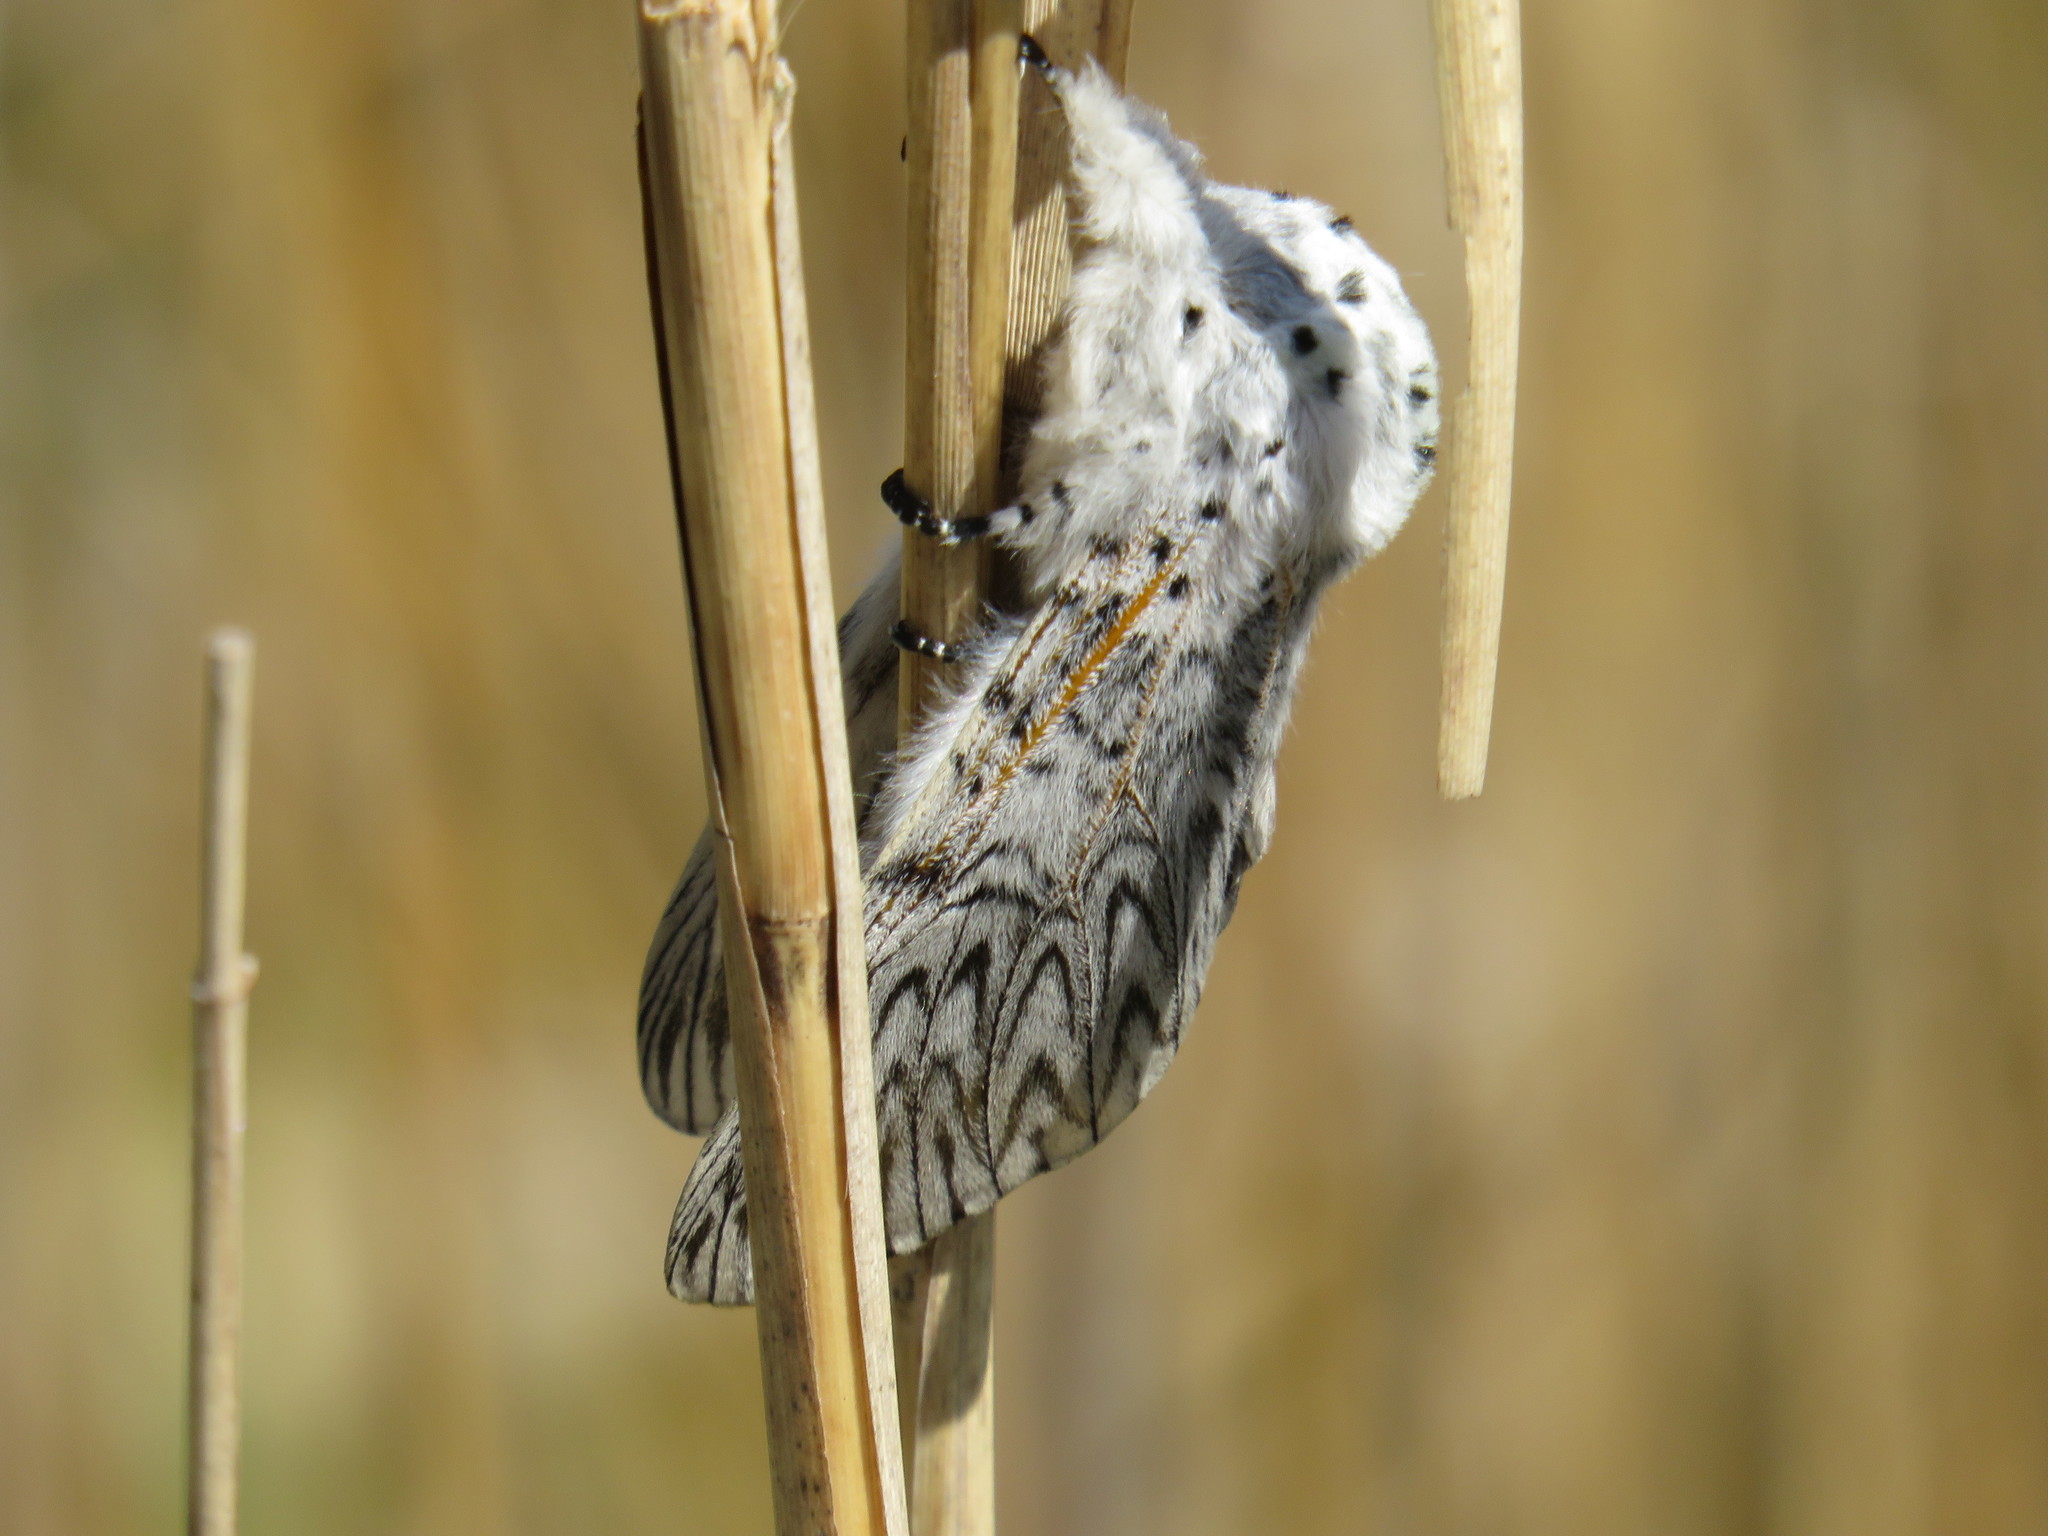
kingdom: Animalia
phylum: Arthropoda
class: Insecta
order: Lepidoptera
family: Notodontidae
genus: Cerura
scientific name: Cerura vinula
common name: Puss moth
